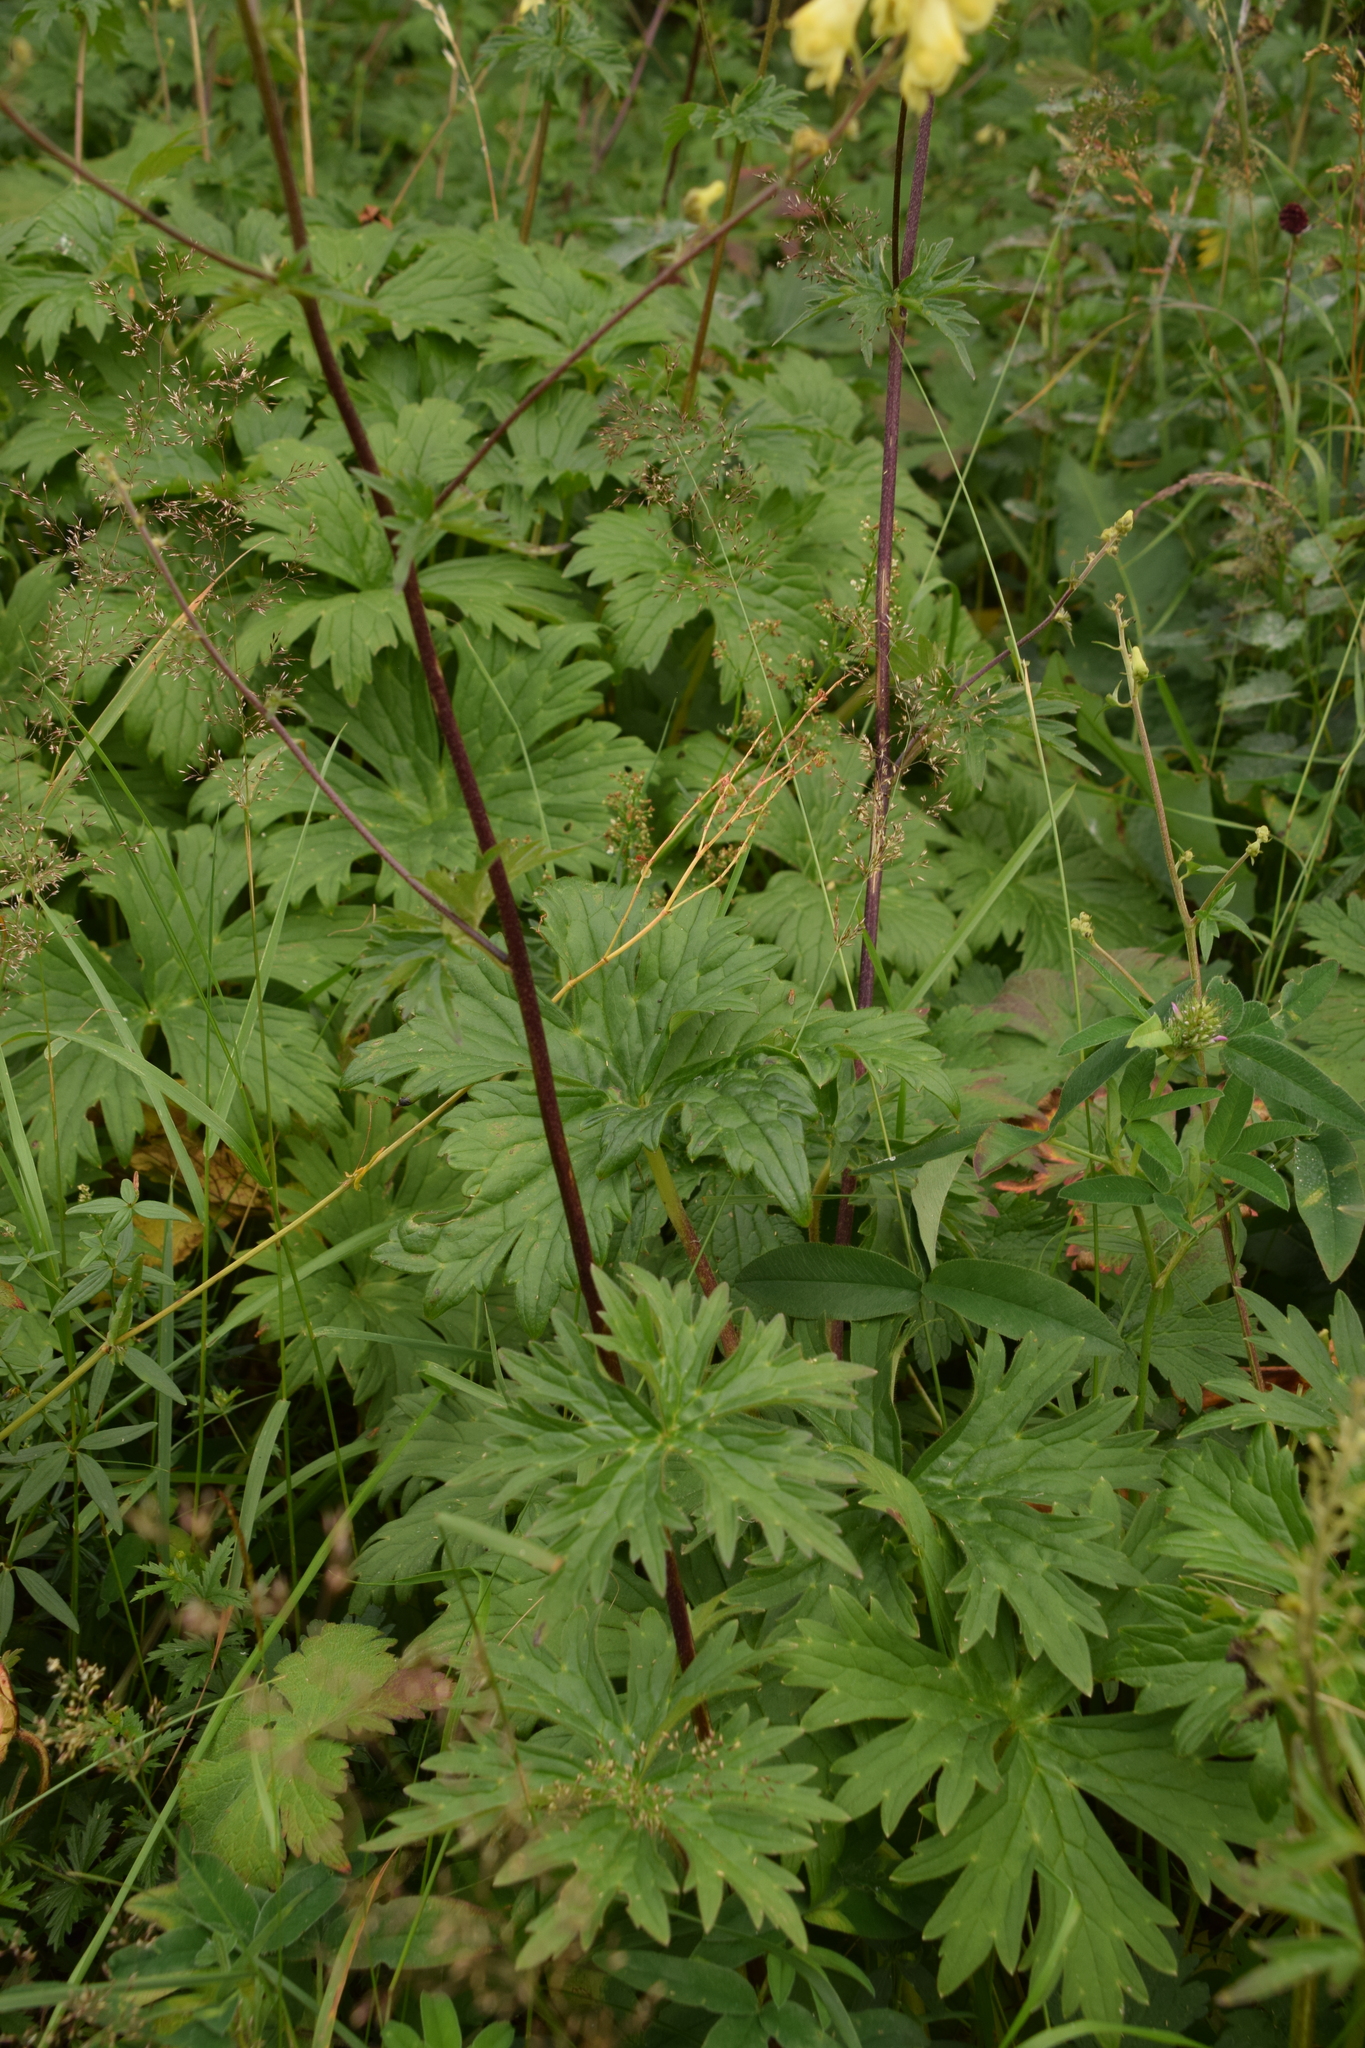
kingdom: Plantae
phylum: Tracheophyta
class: Magnoliopsida
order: Ranunculales
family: Ranunculaceae
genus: Aconitum
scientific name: Aconitum lycoctonum
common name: Wolf's-bane
